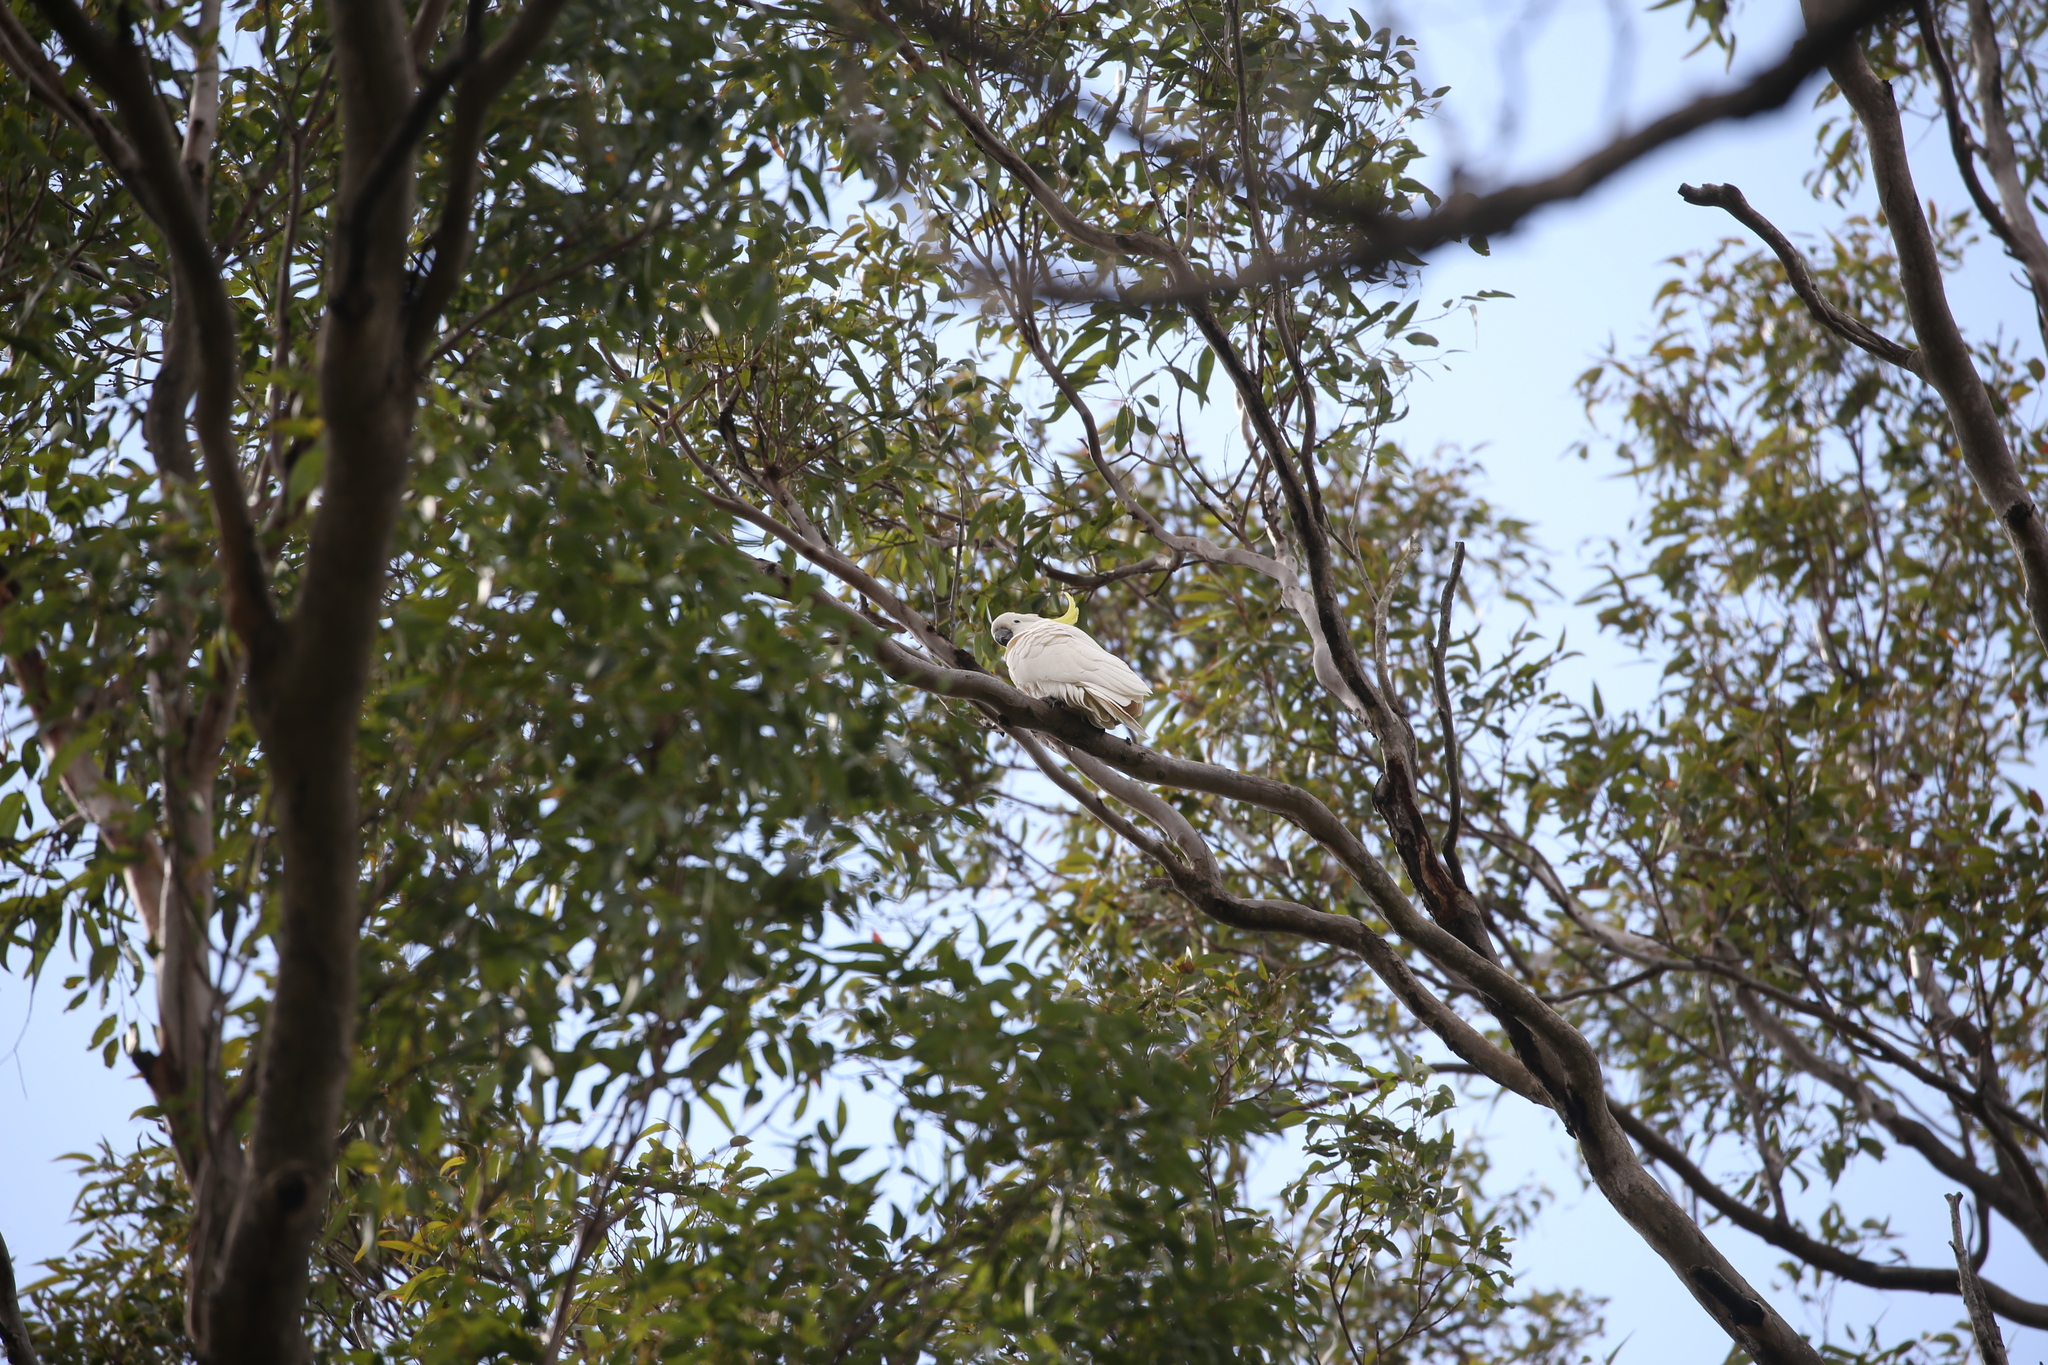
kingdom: Animalia
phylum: Chordata
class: Aves
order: Psittaciformes
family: Psittacidae
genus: Cacatua
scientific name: Cacatua galerita
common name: Sulphur-crested cockatoo
